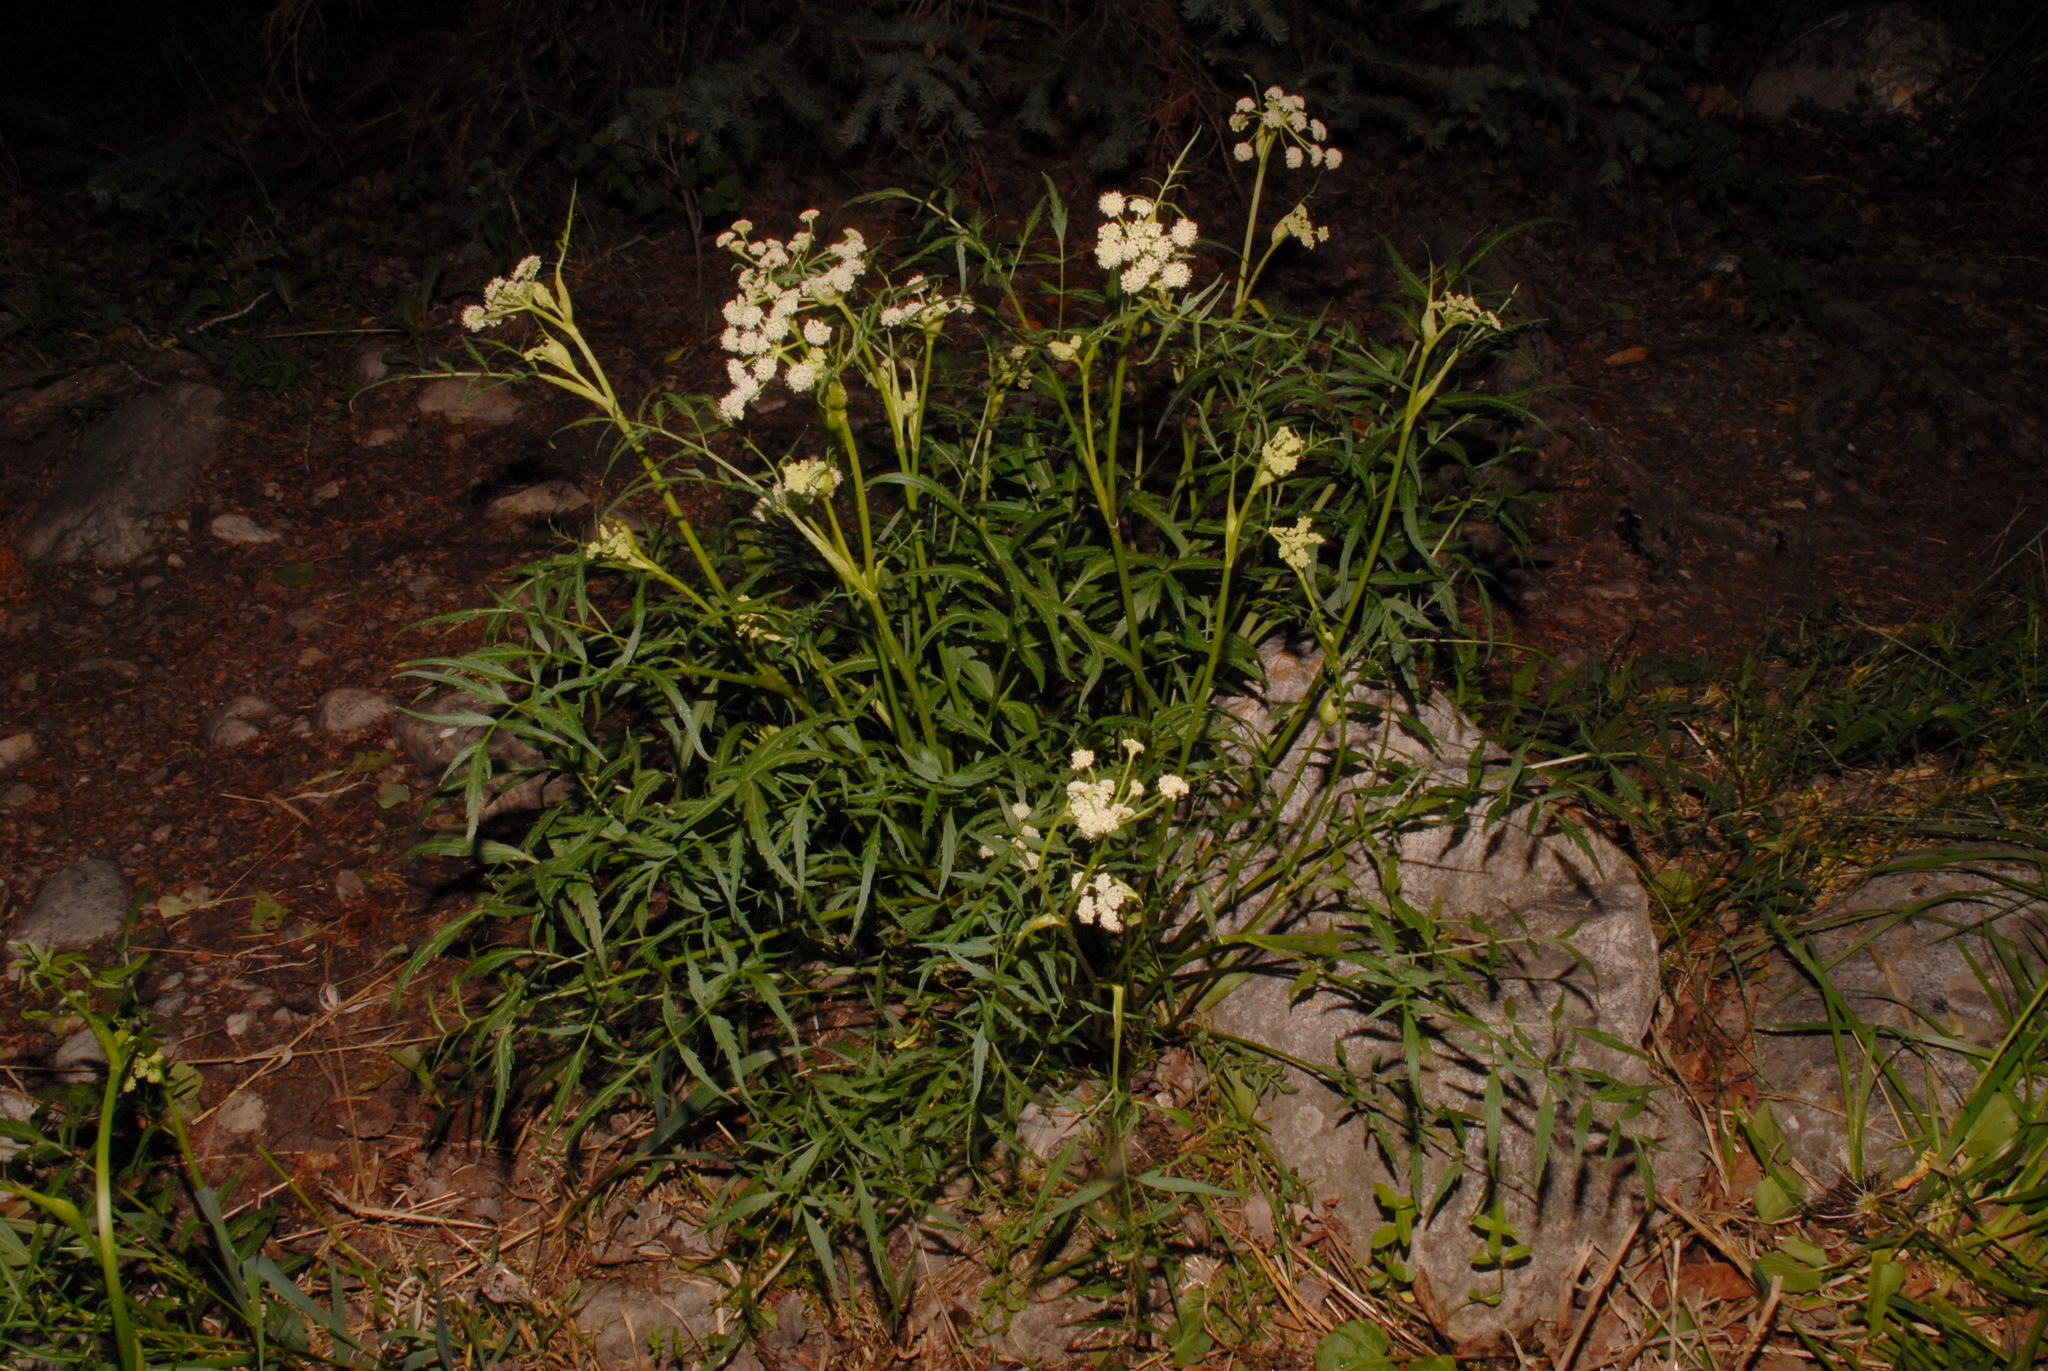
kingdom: Plantae
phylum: Tracheophyta
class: Magnoliopsida
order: Apiales
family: Apiaceae
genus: Angelica
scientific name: Angelica kingii
